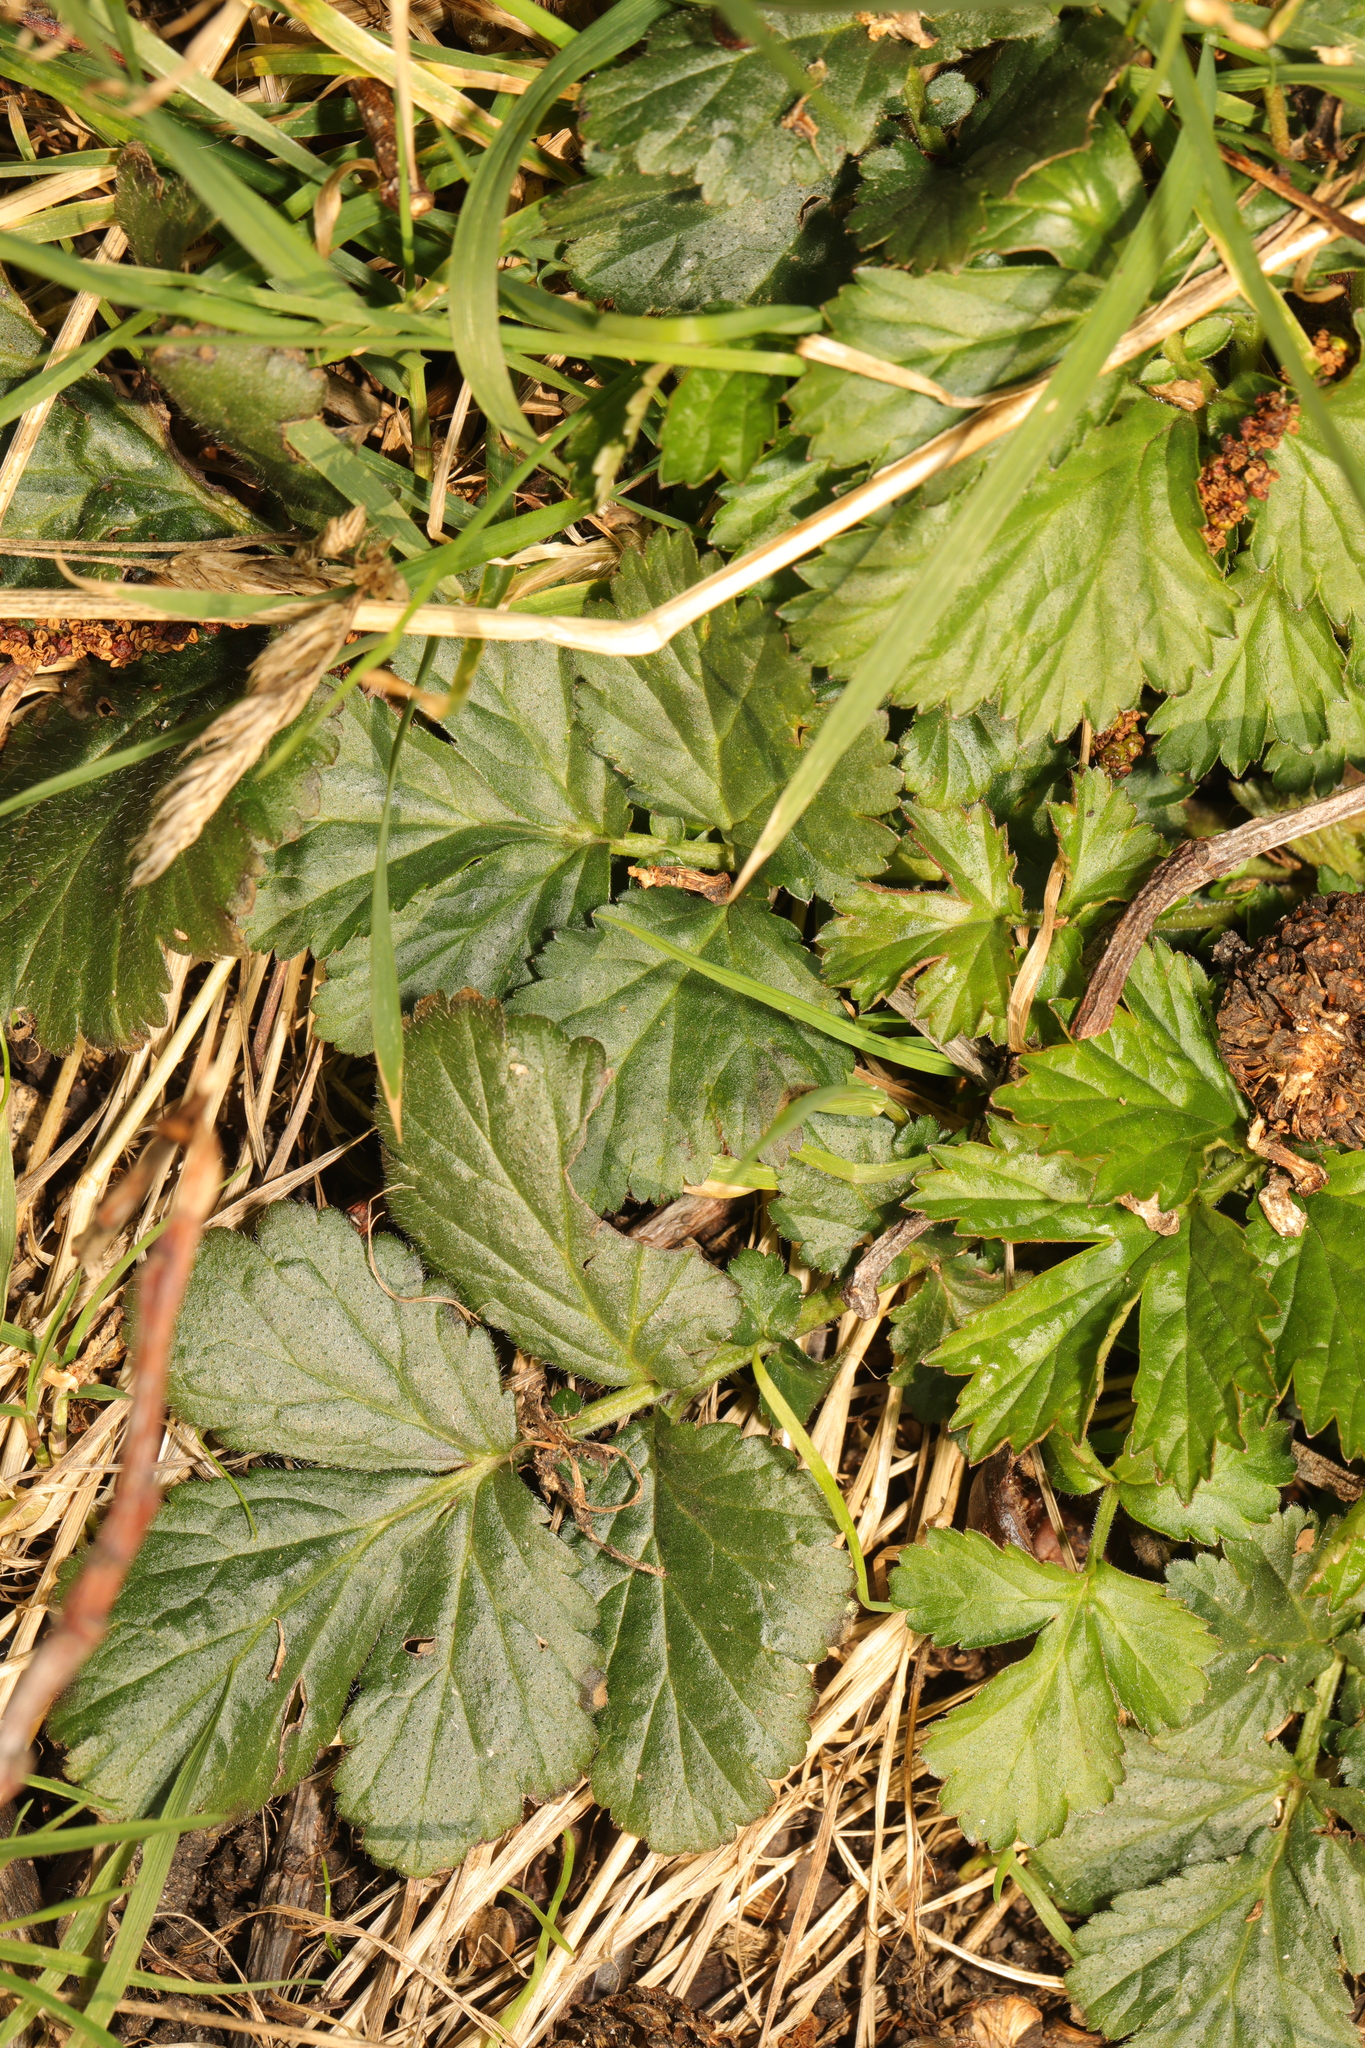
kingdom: Plantae
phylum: Tracheophyta
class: Magnoliopsida
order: Rosales
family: Rosaceae
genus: Geum
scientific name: Geum urbanum
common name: Wood avens
